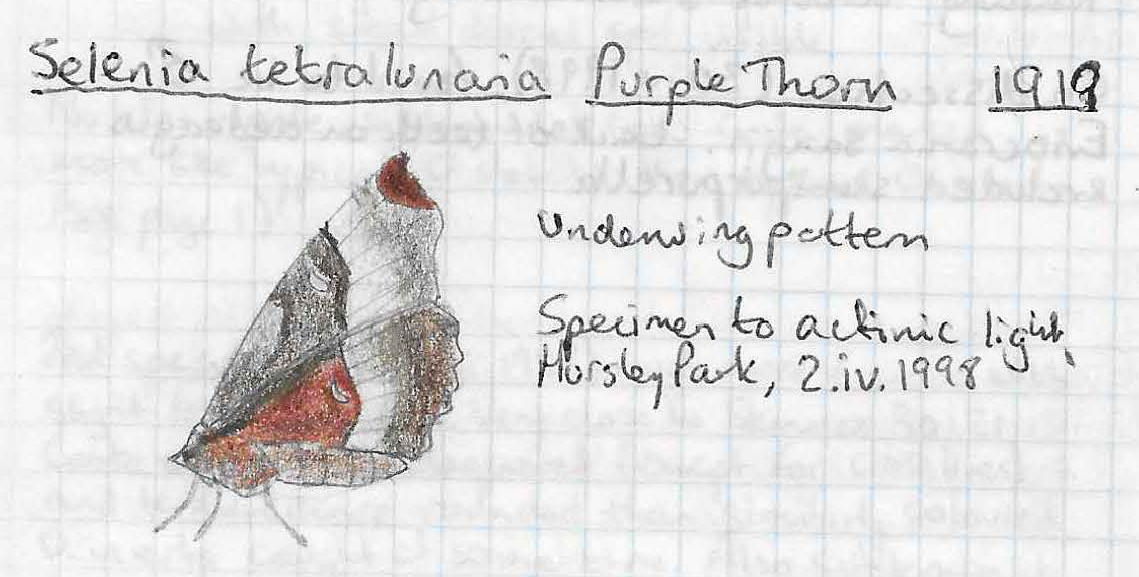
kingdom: Animalia
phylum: Arthropoda
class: Insecta
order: Lepidoptera
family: Geometridae
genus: Selenia
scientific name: Selenia tetralunaria
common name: Purple thorn
